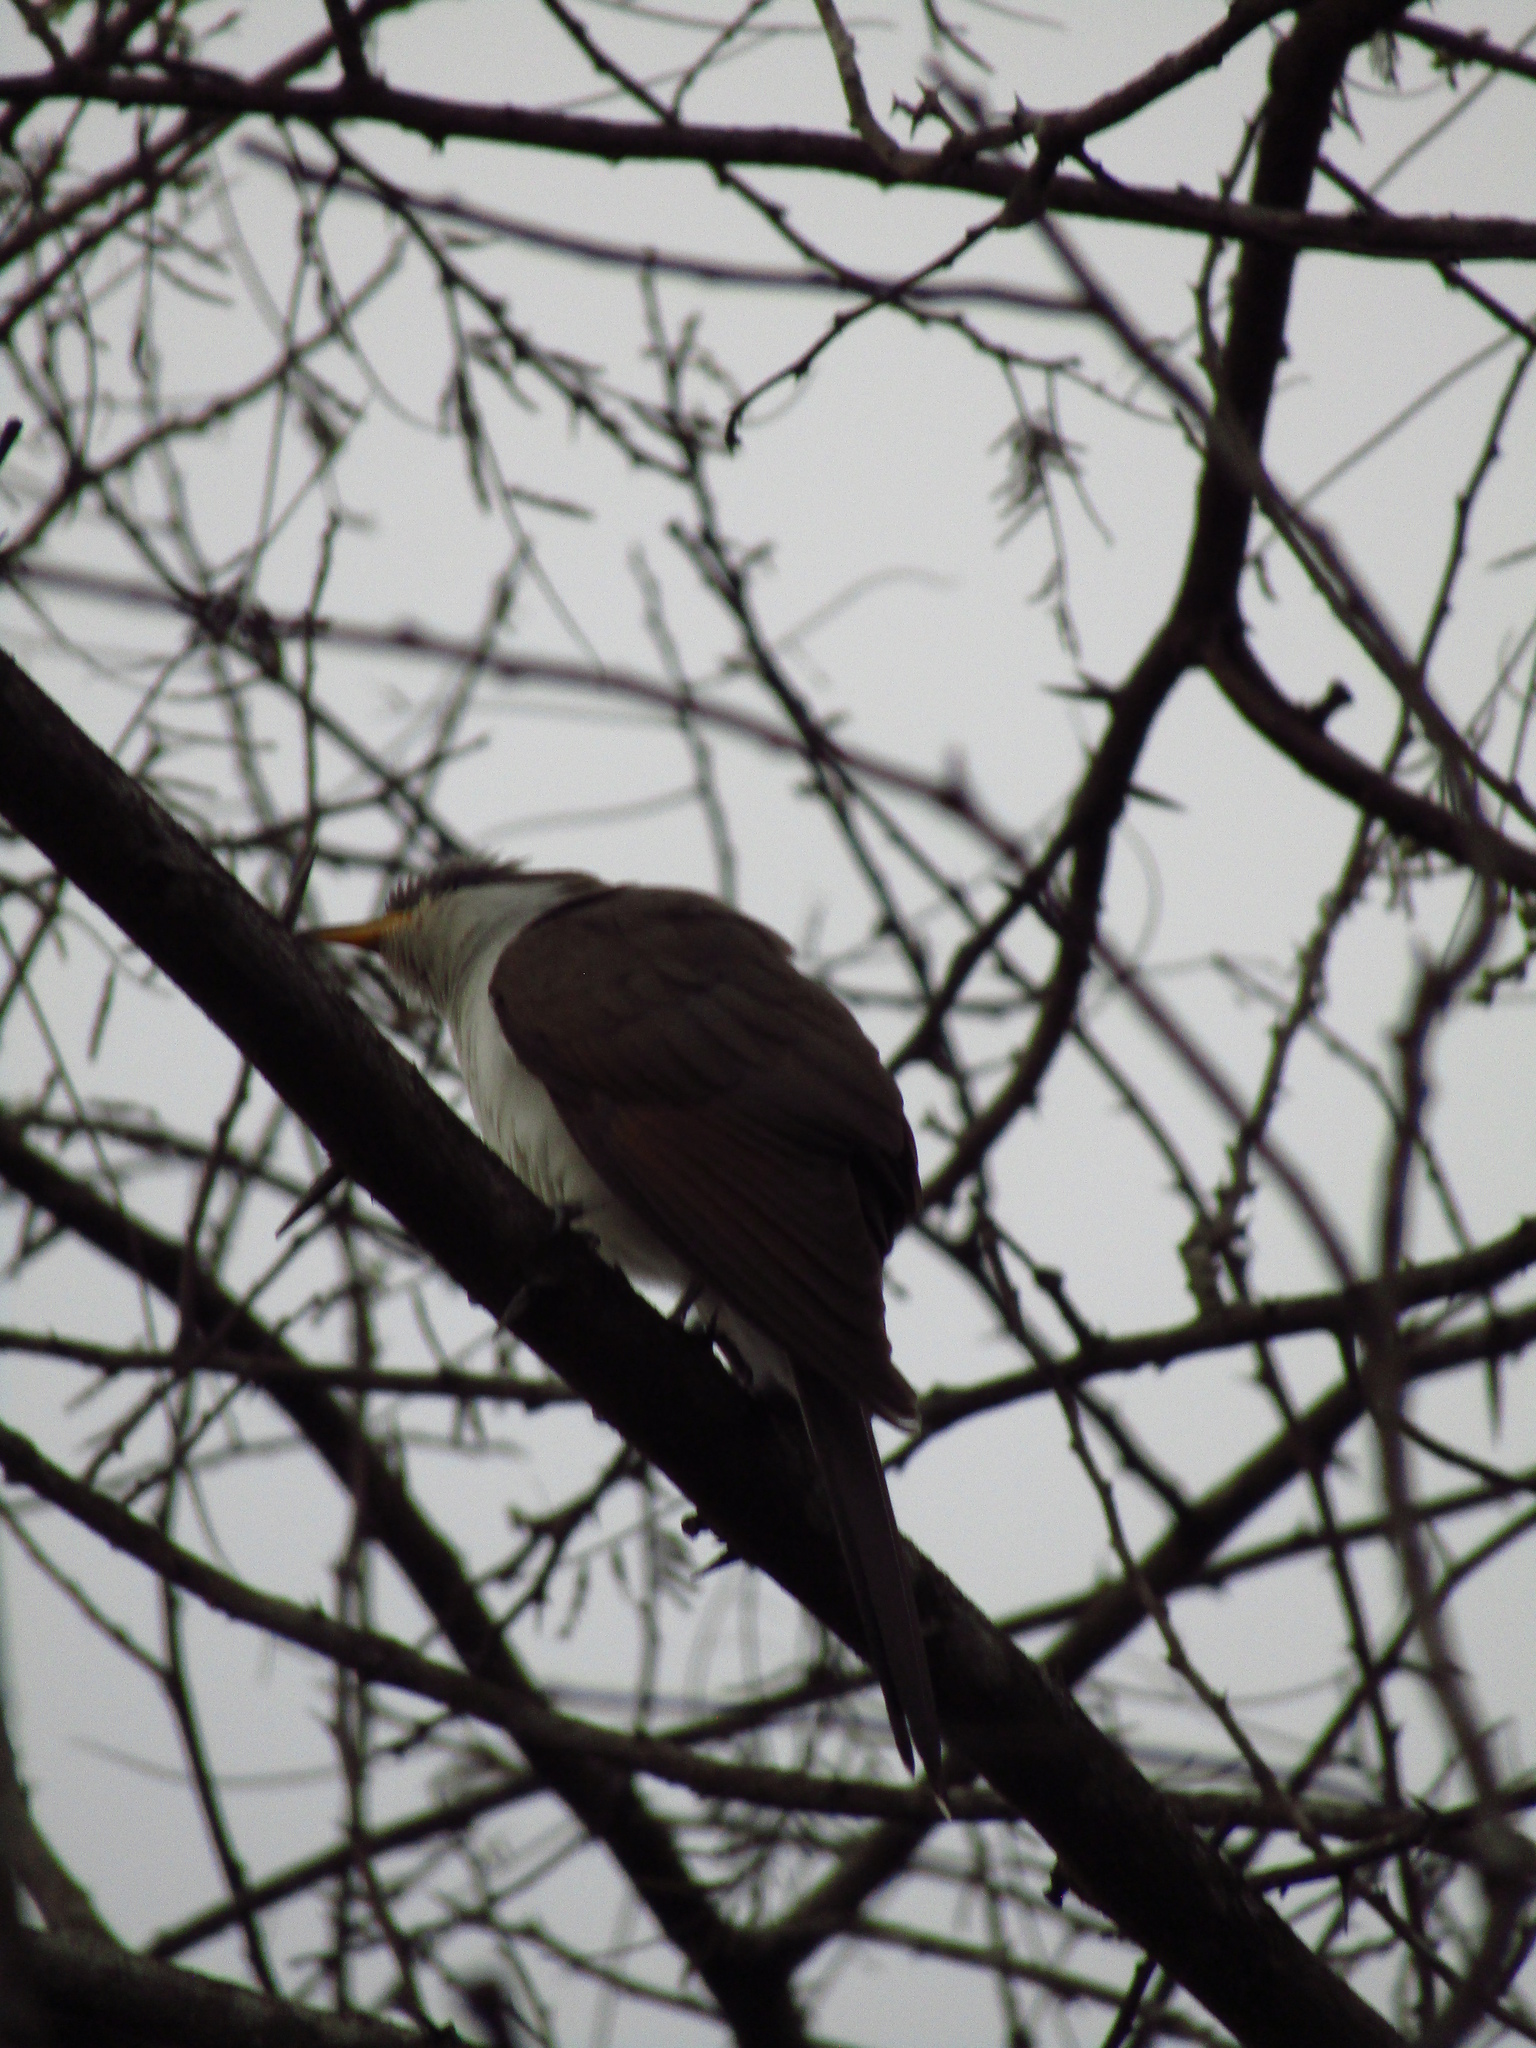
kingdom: Animalia
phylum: Chordata
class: Aves
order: Cuculiformes
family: Cuculidae
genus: Coccyzus
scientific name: Coccyzus americanus
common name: Yellow-billed cuckoo
